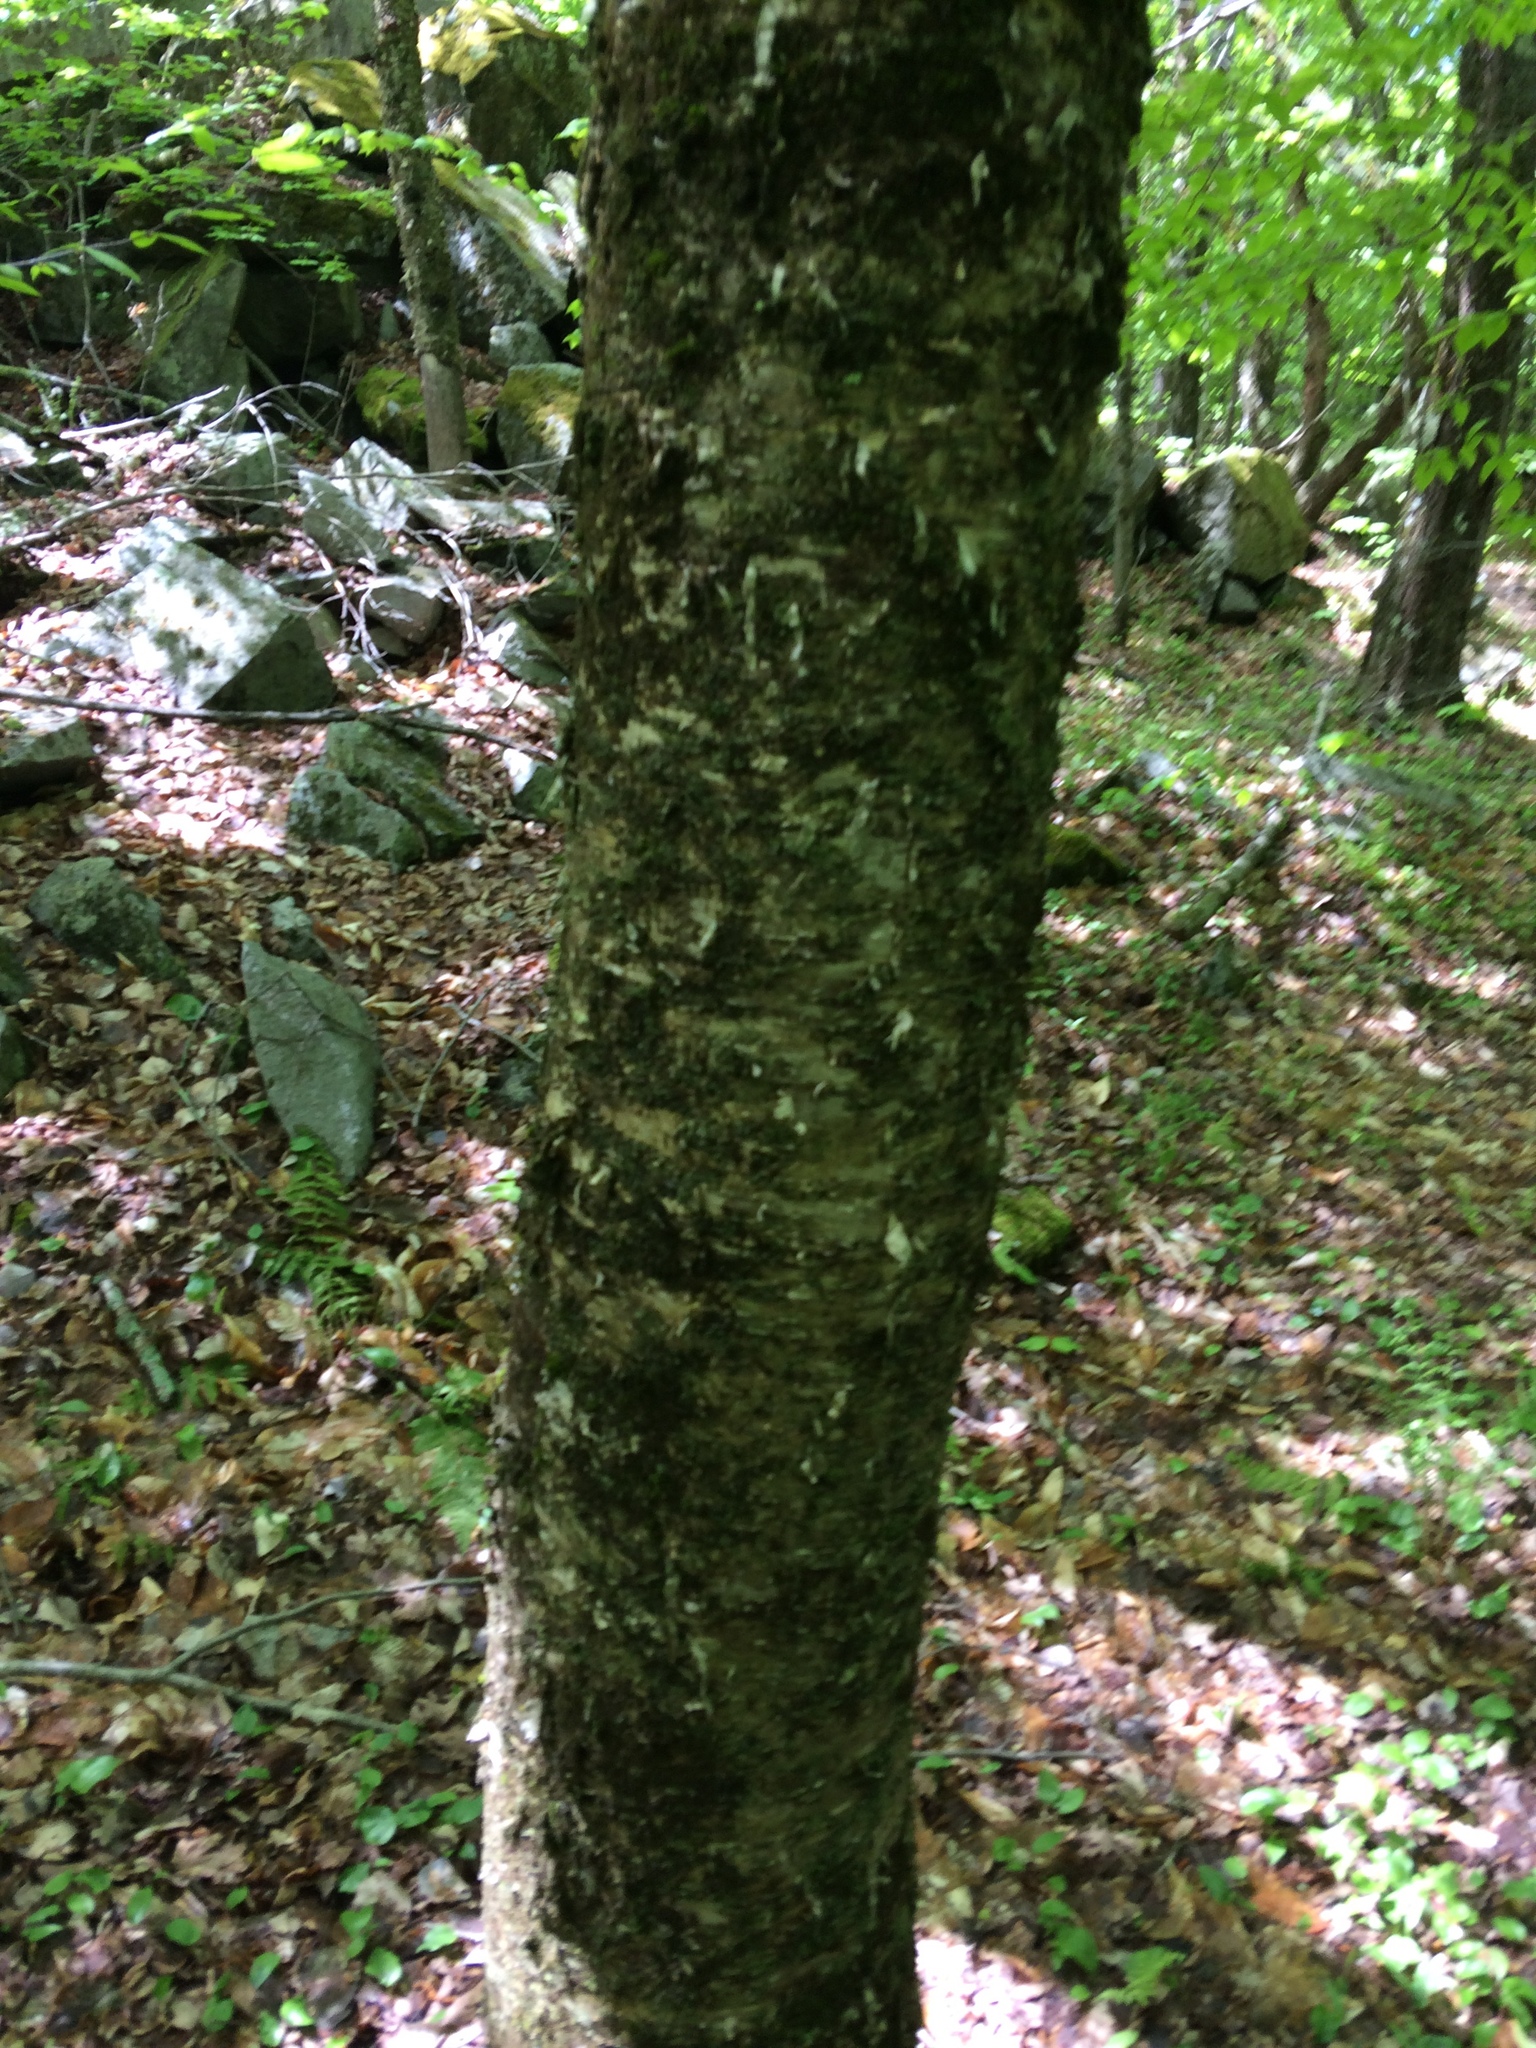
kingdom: Plantae
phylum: Tracheophyta
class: Magnoliopsida
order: Fagales
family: Betulaceae
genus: Betula
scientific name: Betula alleghaniensis
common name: Yellow birch
